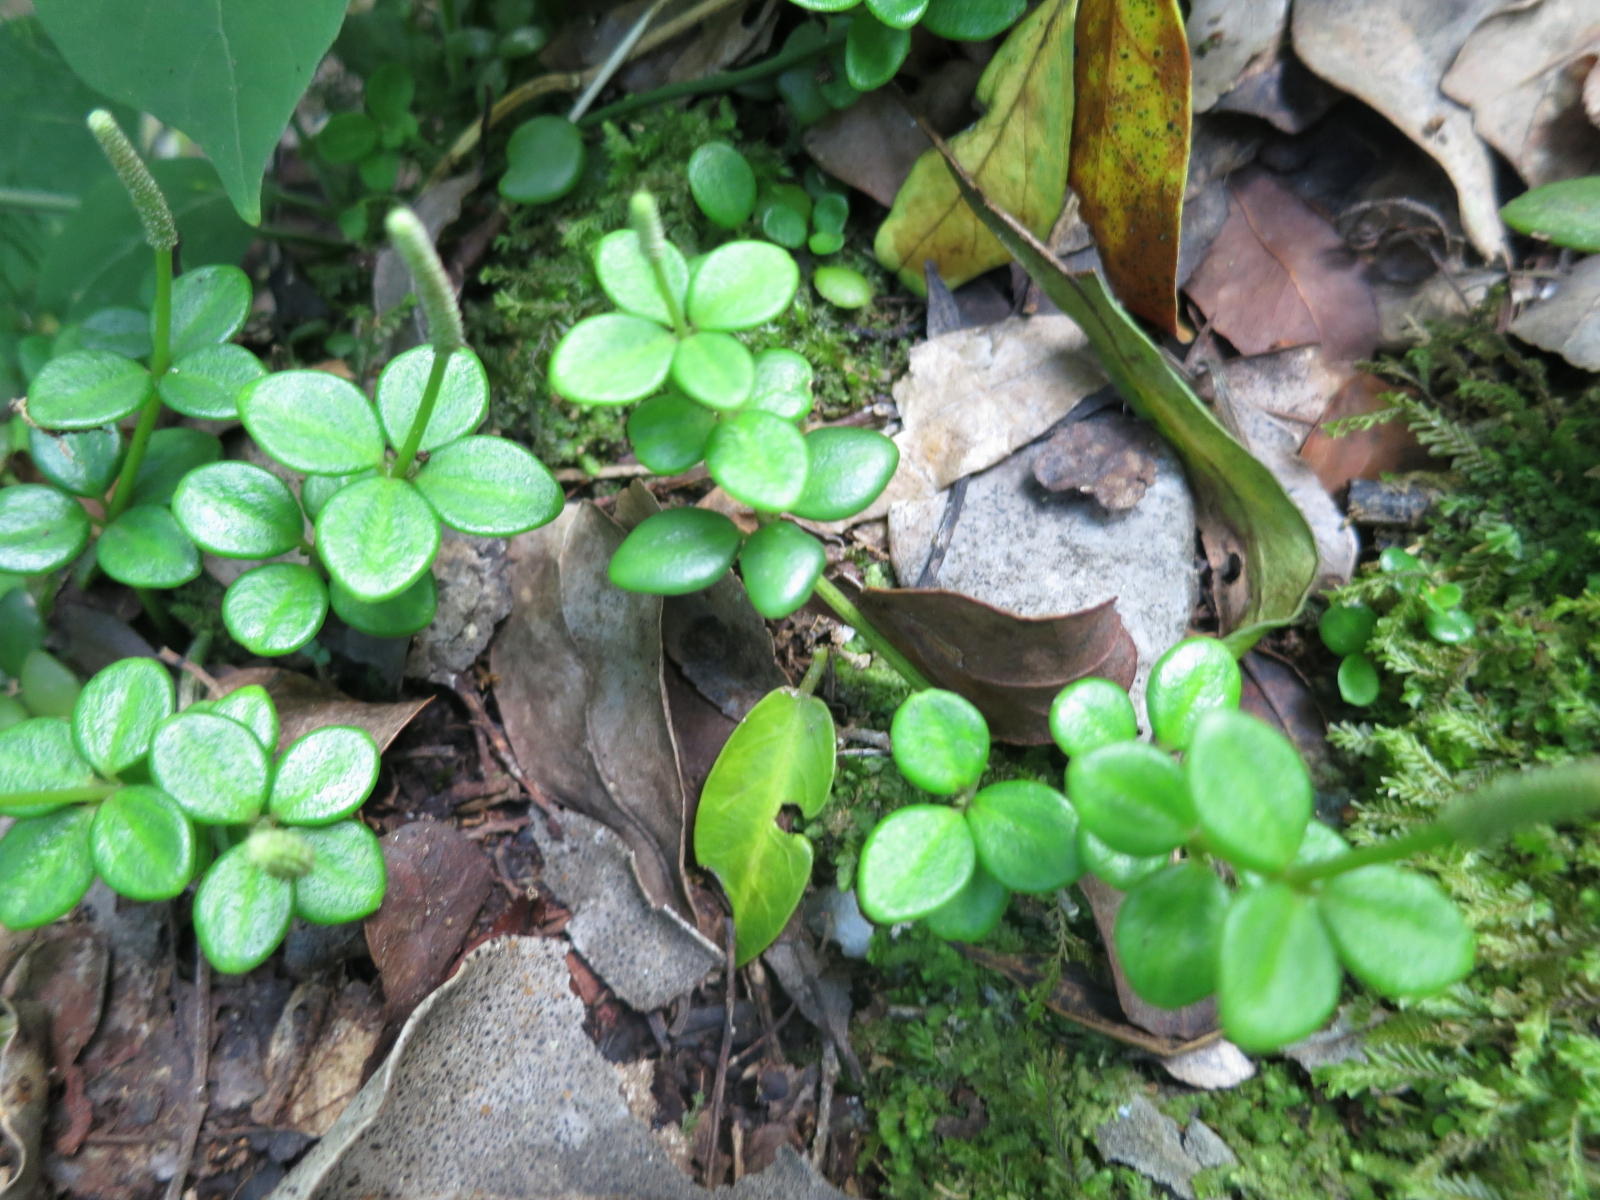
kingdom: Plantae
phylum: Tracheophyta
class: Magnoliopsida
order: Piperales
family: Piperaceae
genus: Peperomia
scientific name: Peperomia tetraphylla
